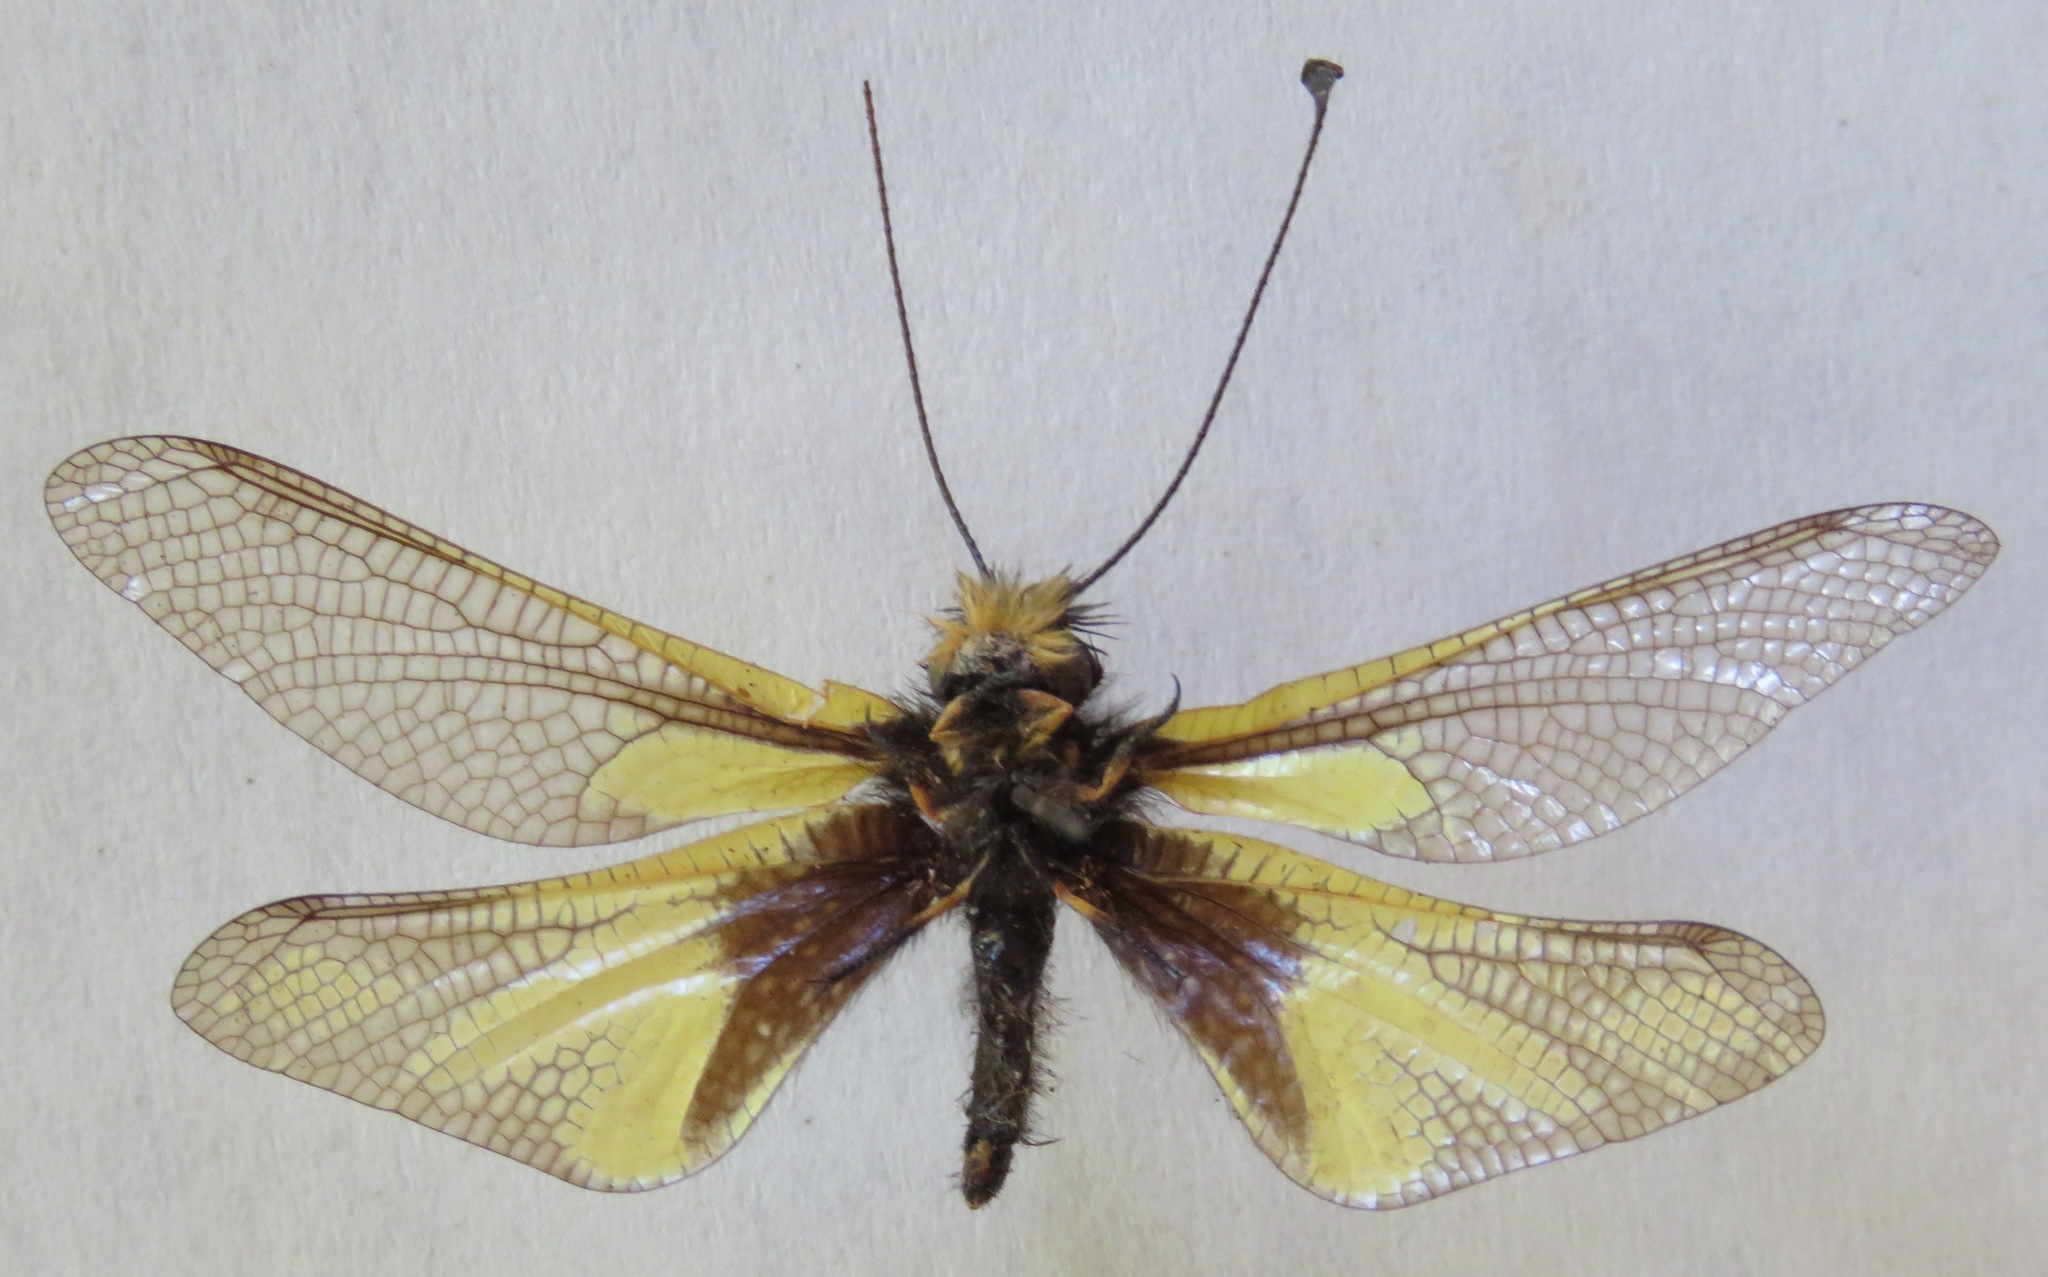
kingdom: Animalia
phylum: Arthropoda
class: Insecta
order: Neuroptera
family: Ascalaphidae
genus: Libelloides
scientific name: Libelloides coccajus
